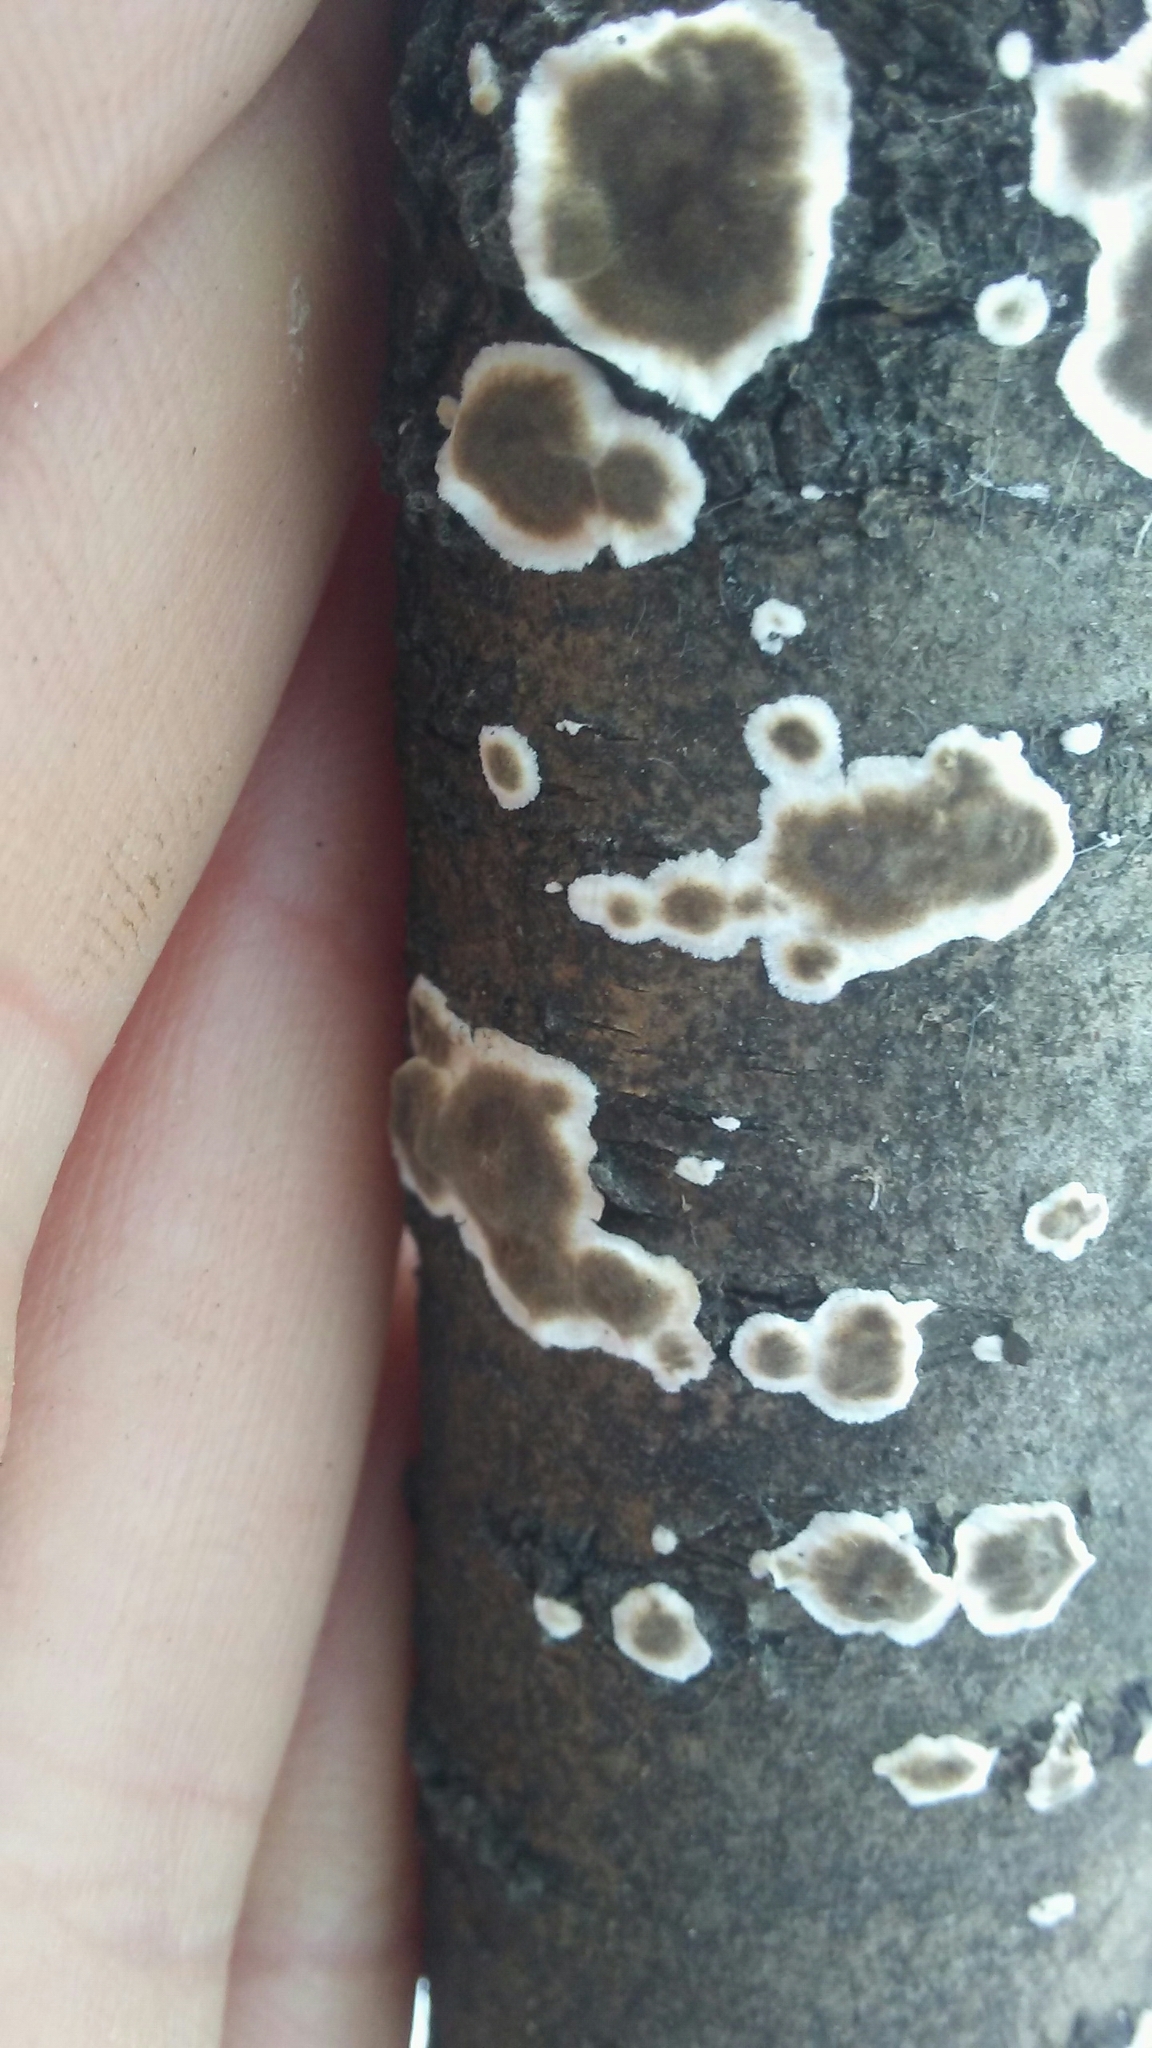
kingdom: Fungi
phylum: Basidiomycota
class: Agaricomycetes
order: Russulales
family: Peniophoraceae
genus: Peniophora
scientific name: Peniophora albobadia
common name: Giraffe spots
